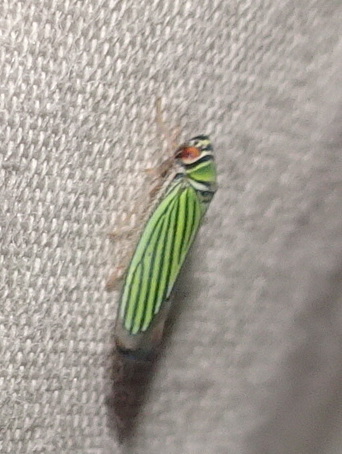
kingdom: Animalia
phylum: Arthropoda
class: Insecta
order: Hemiptera
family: Cicadellidae
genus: Tylozygus
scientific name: Tylozygus bifidus
